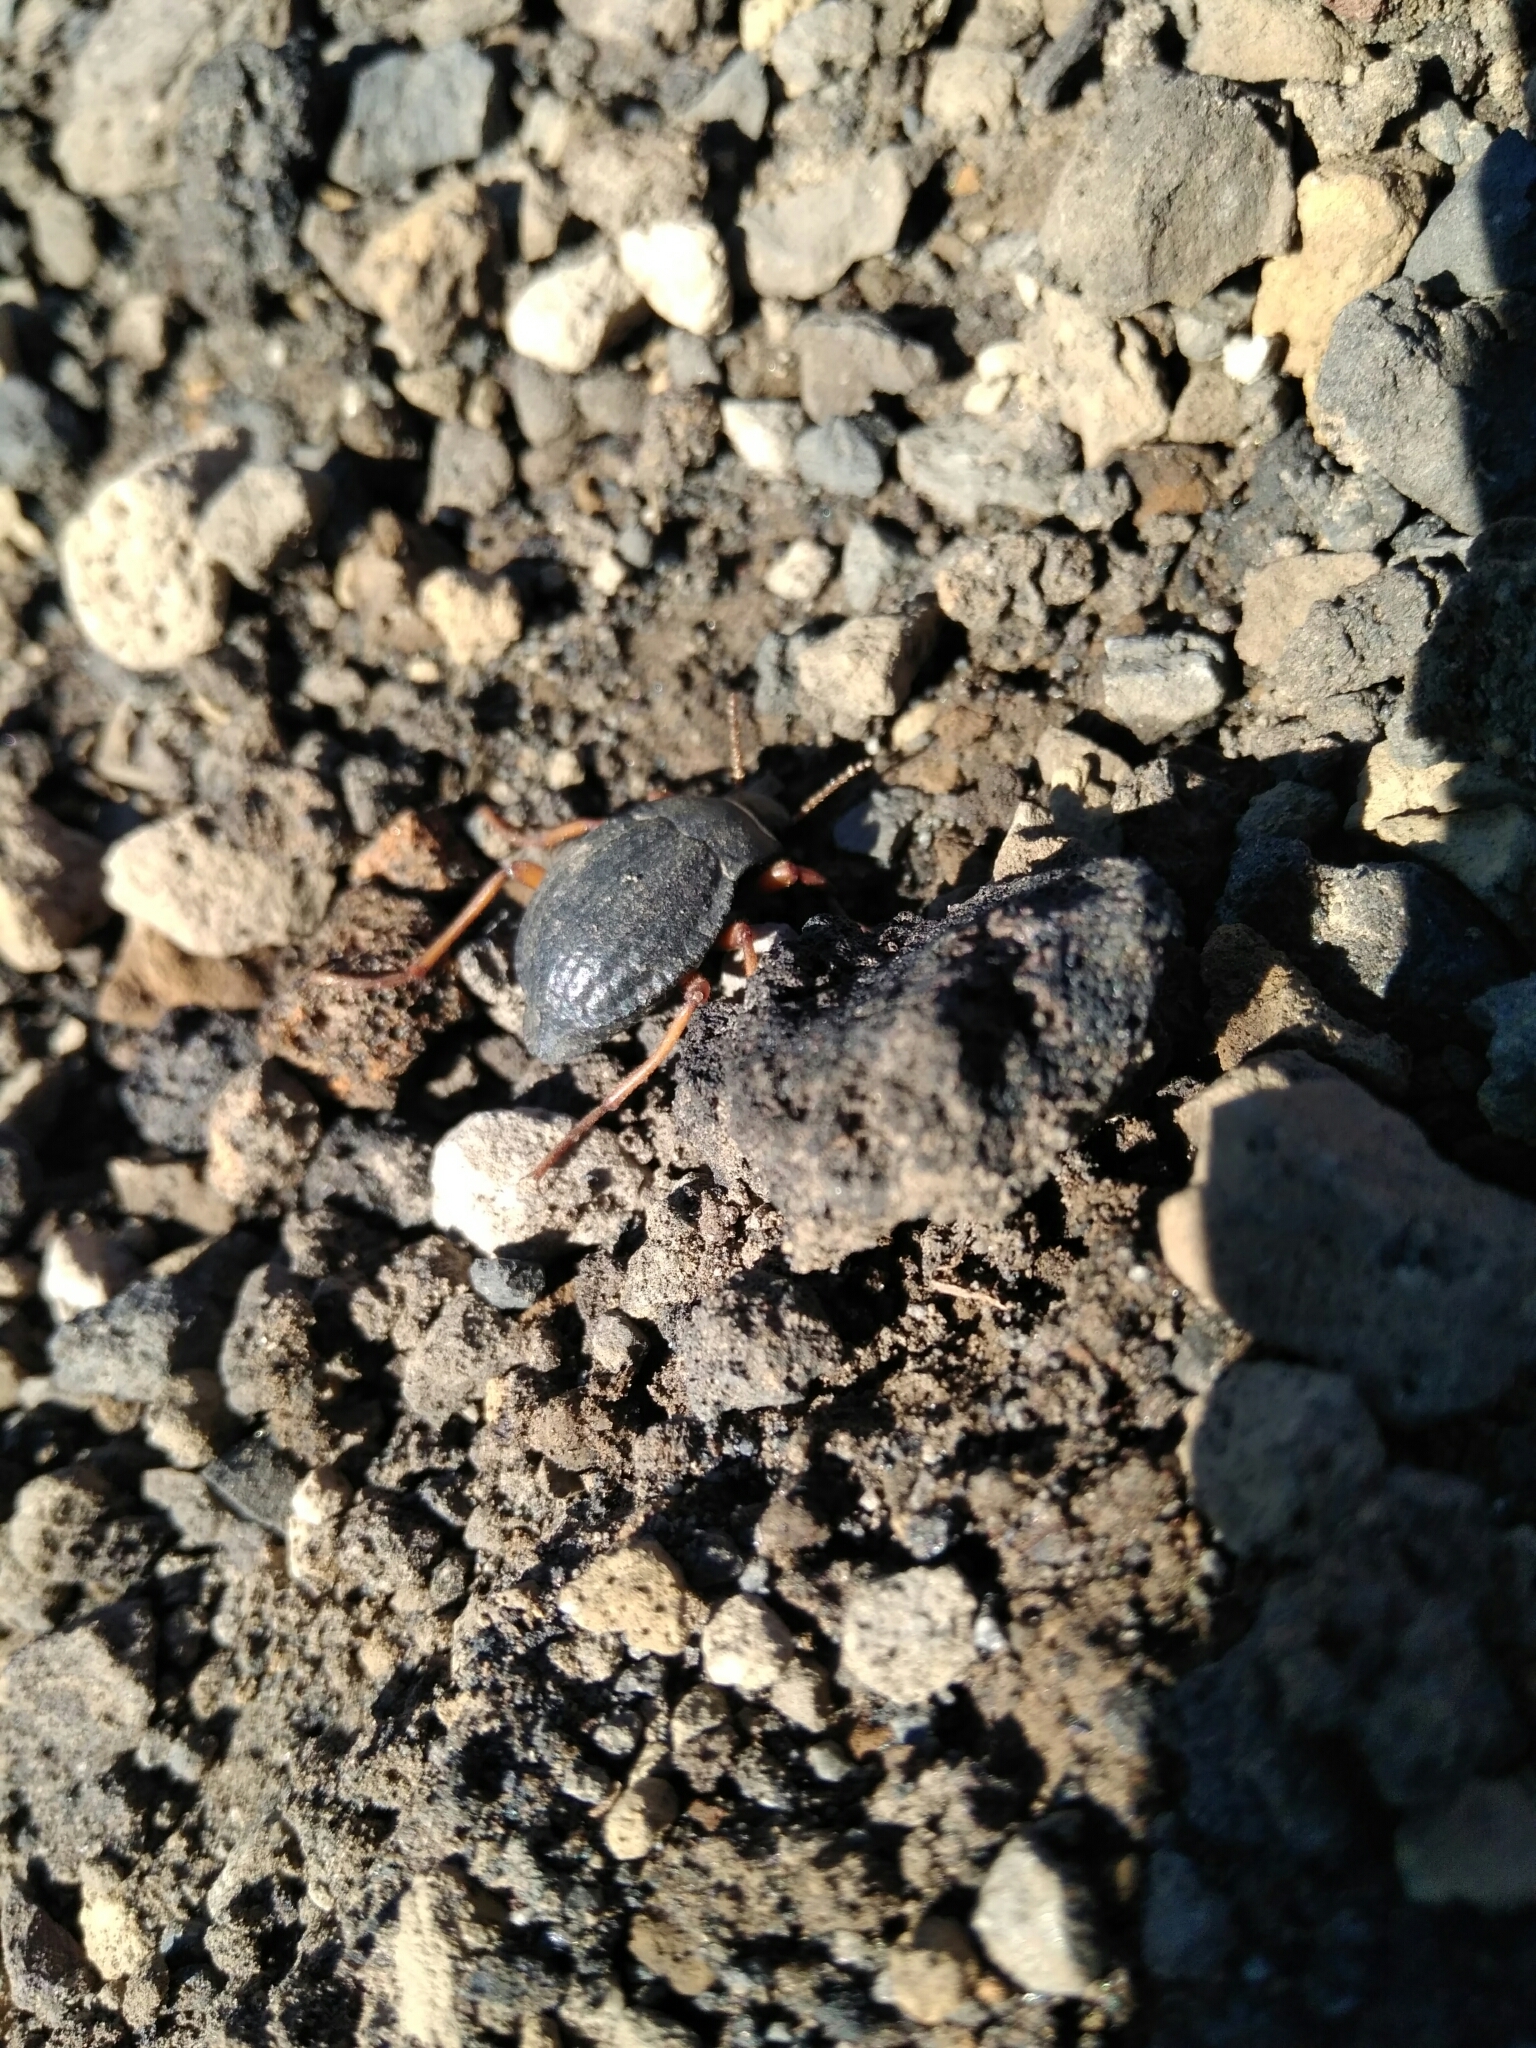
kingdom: Animalia
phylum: Arthropoda
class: Insecta
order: Coleoptera
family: Tenebrionidae
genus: Nyctelia
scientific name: Nyctelia
